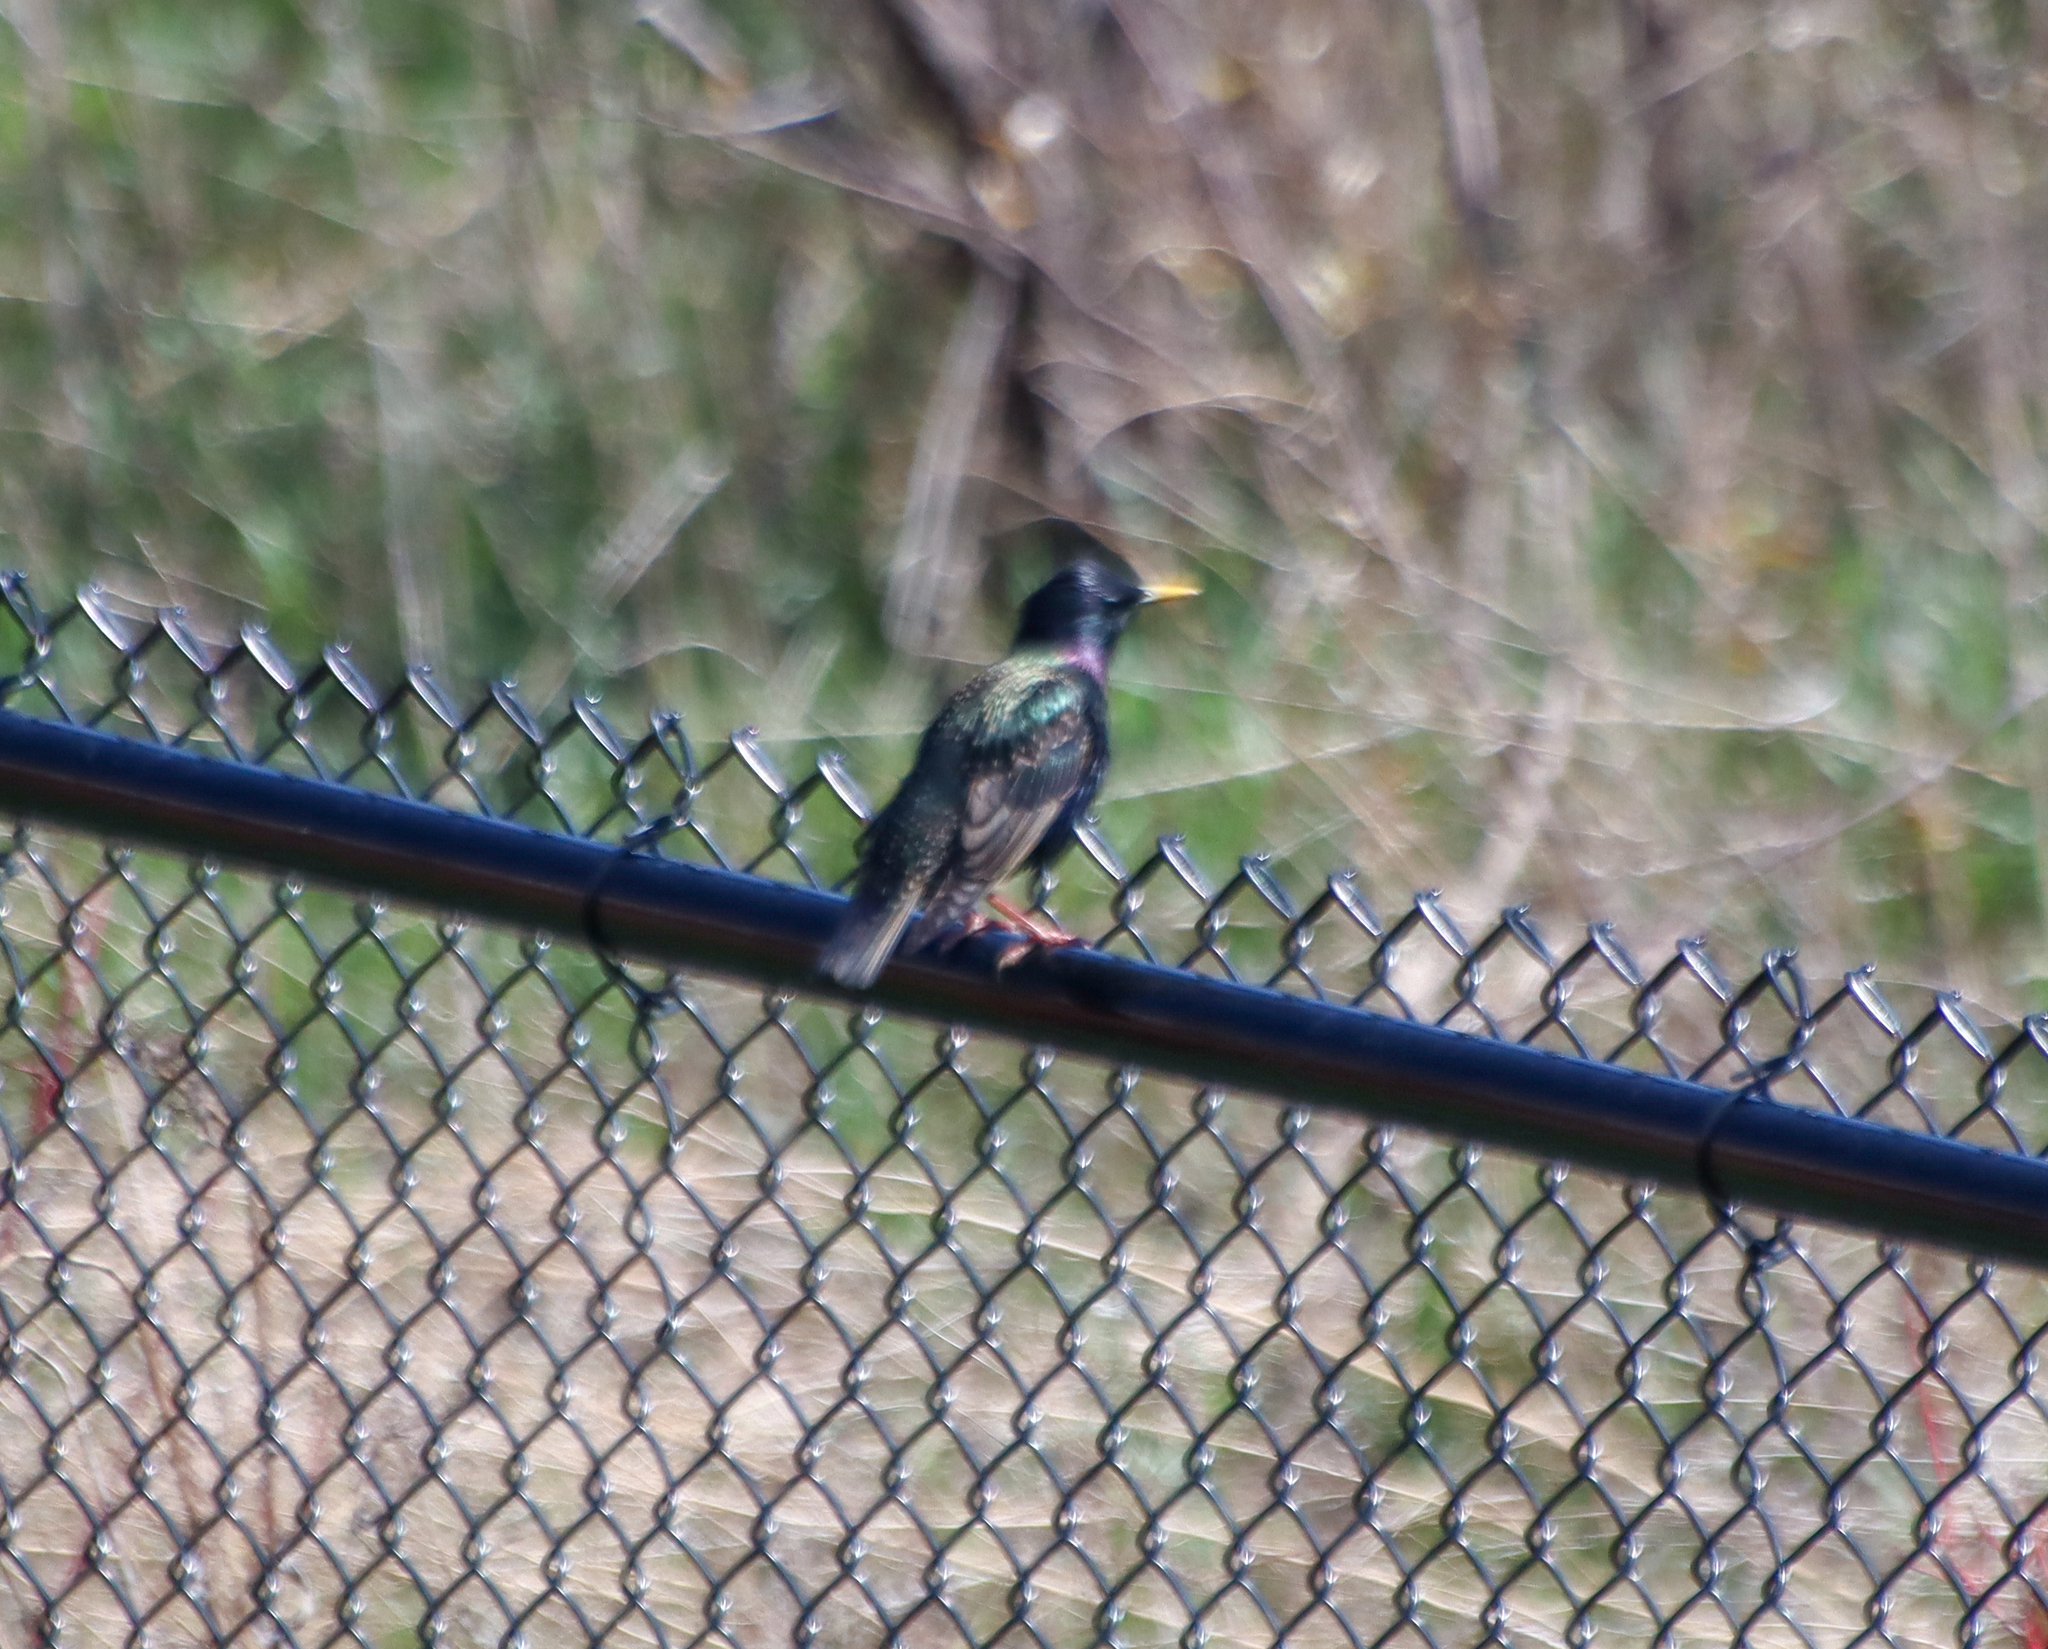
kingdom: Animalia
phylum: Chordata
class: Aves
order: Passeriformes
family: Sturnidae
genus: Sturnus
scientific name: Sturnus vulgaris
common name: Common starling
